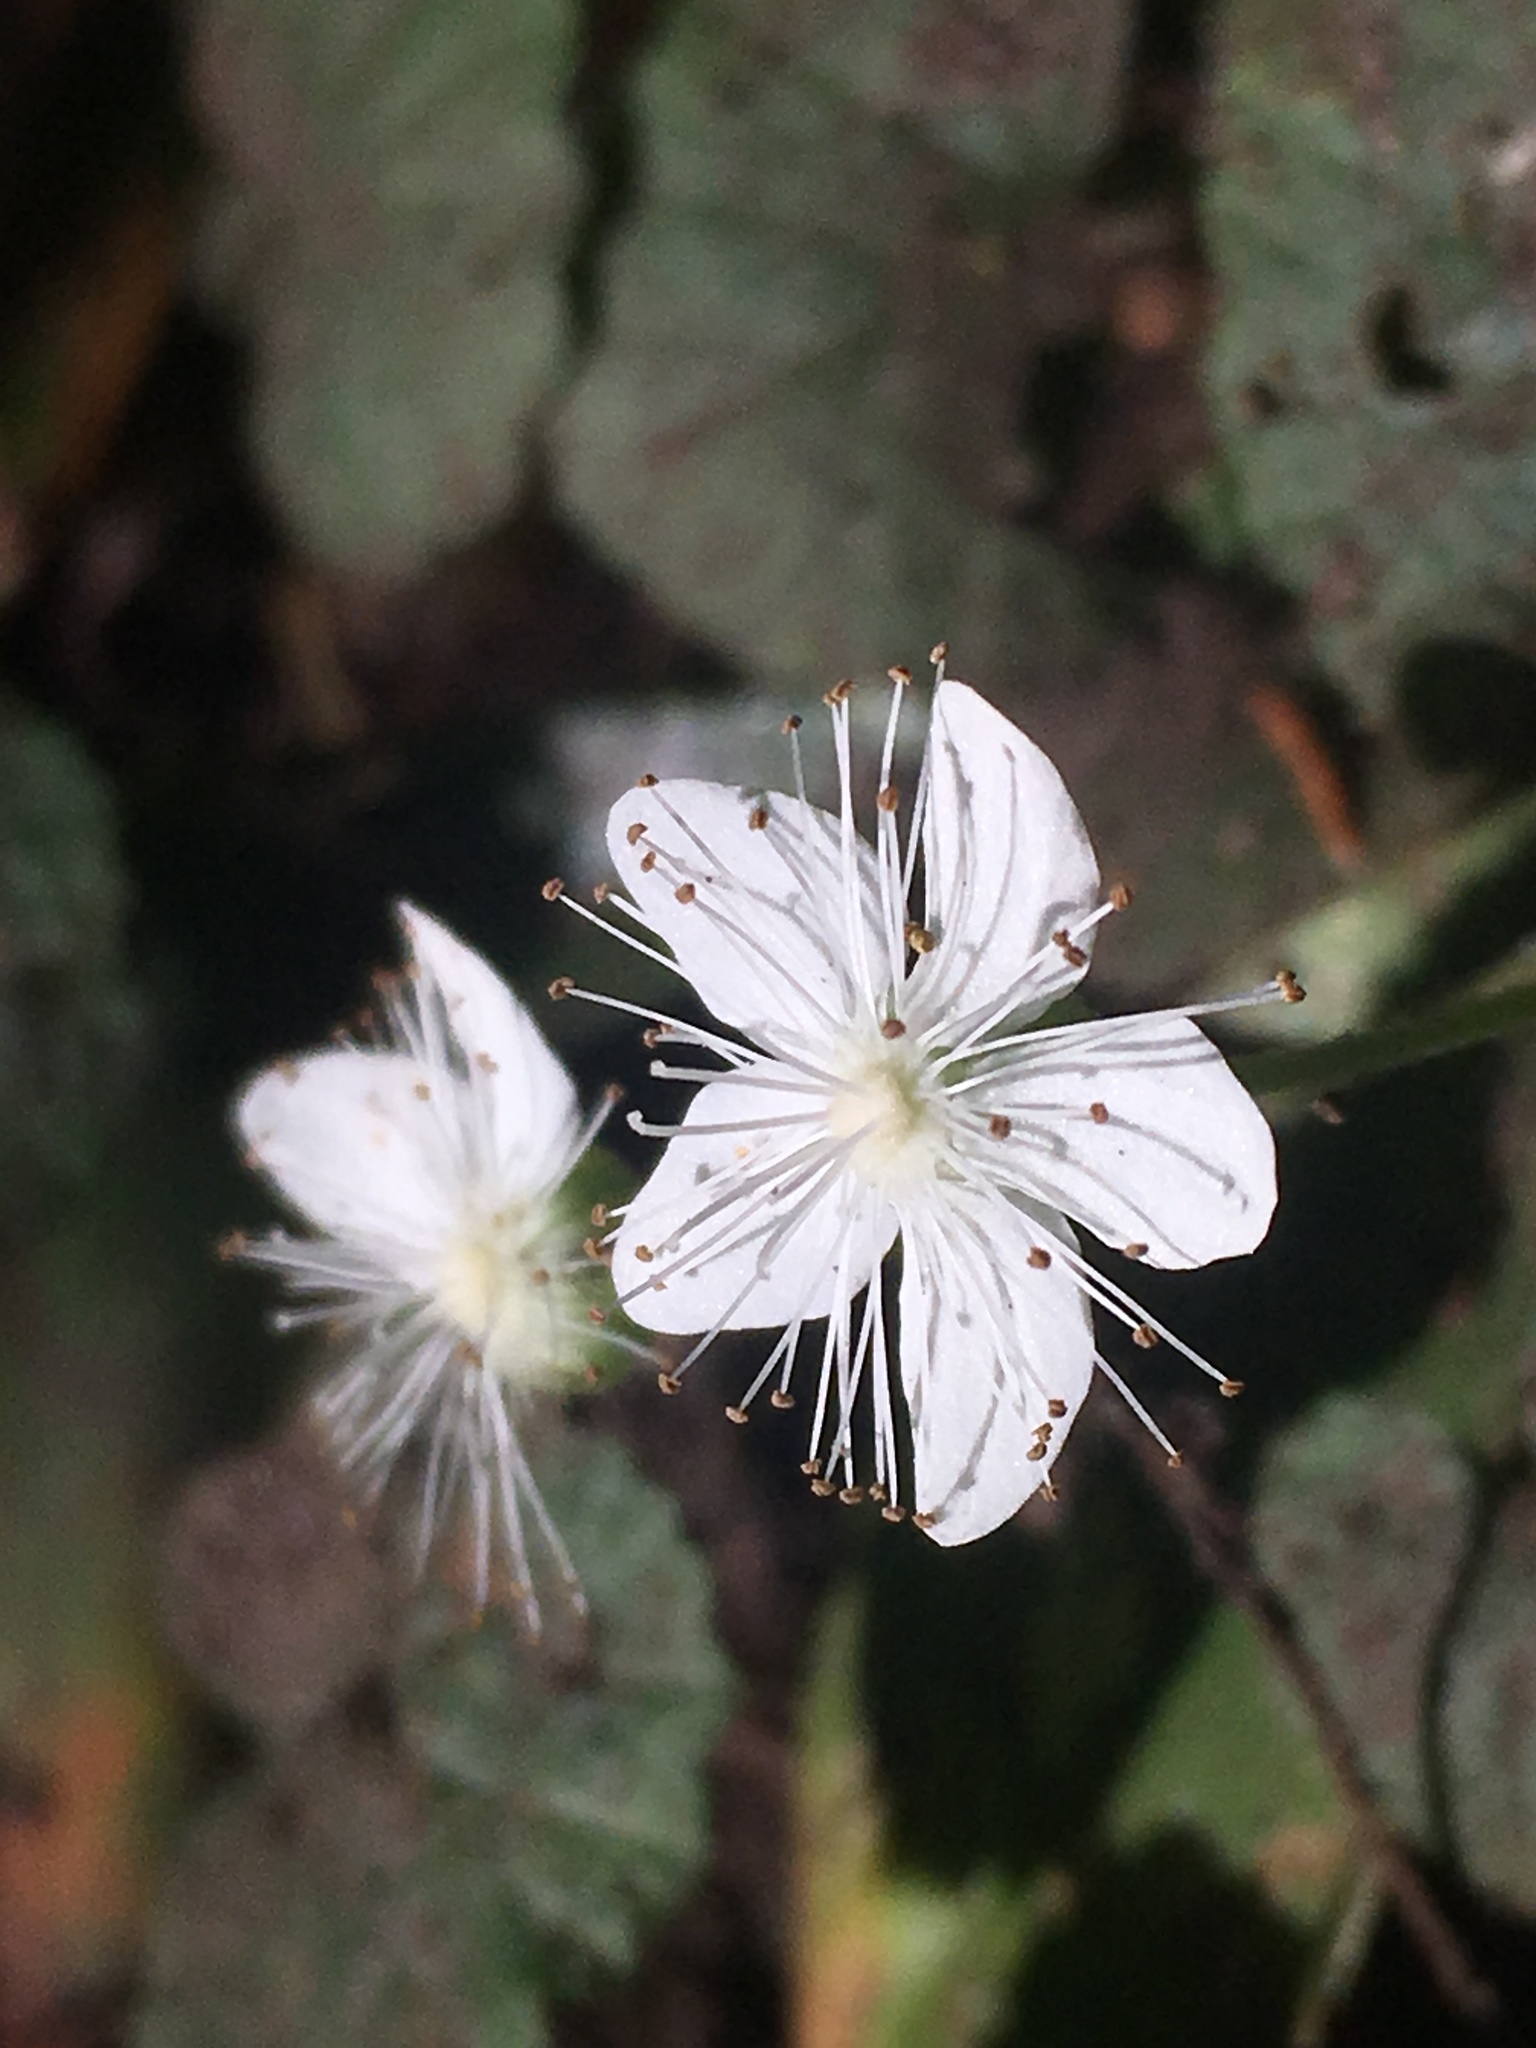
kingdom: Plantae
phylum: Tracheophyta
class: Magnoliopsida
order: Rosales
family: Rosaceae
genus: Dalibarda
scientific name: Dalibarda repens
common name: Dewdrop
